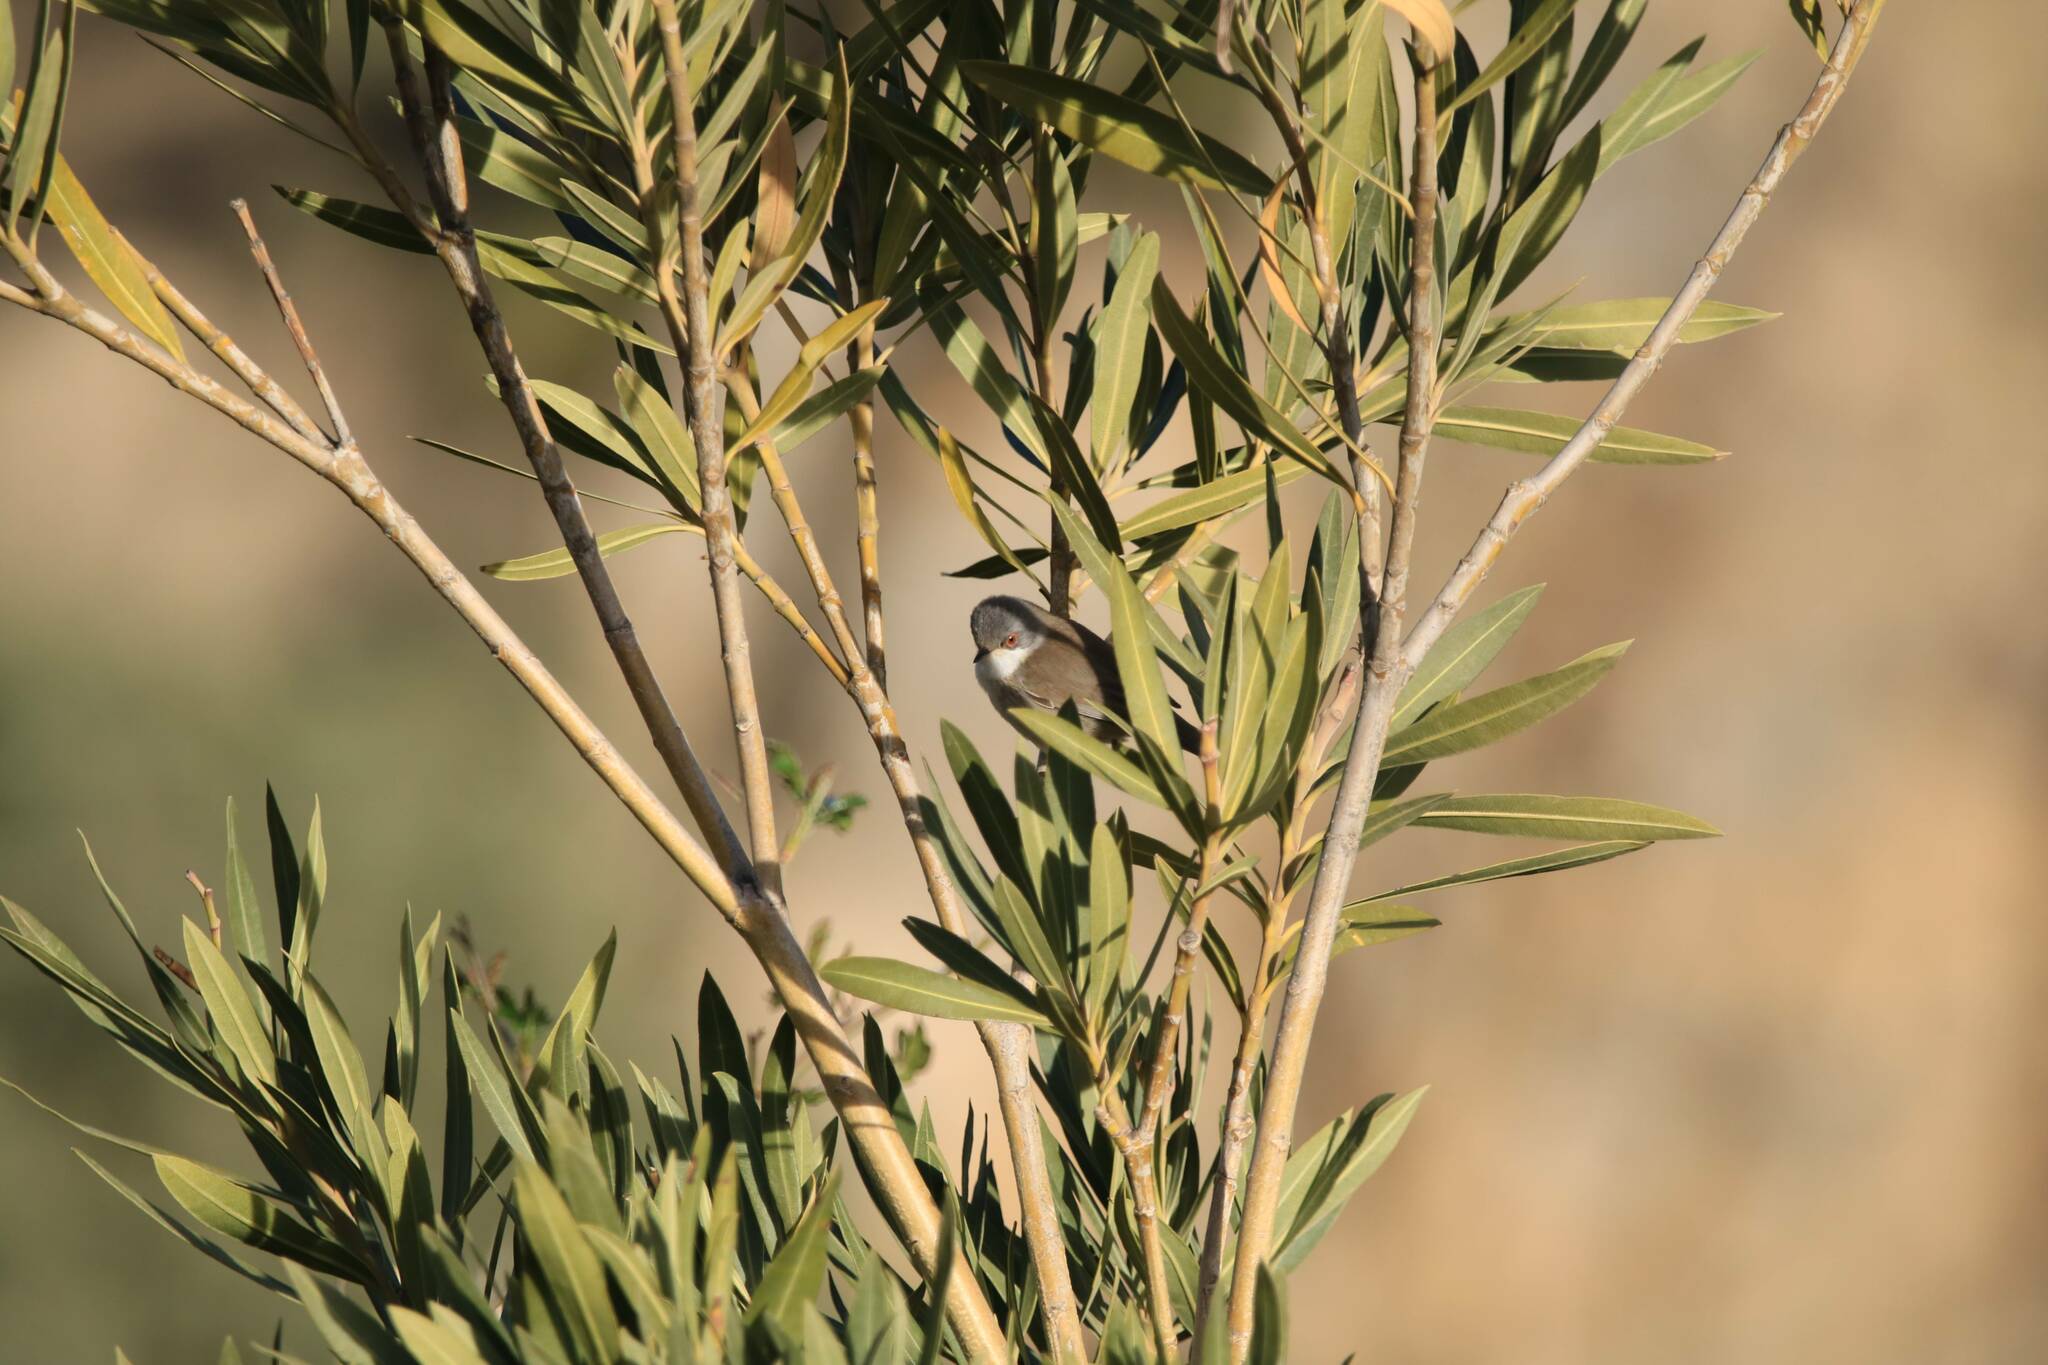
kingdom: Animalia
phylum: Chordata
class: Aves
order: Passeriformes
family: Sylviidae
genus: Curruca
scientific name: Curruca melanocephala
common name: Sardinian warbler
